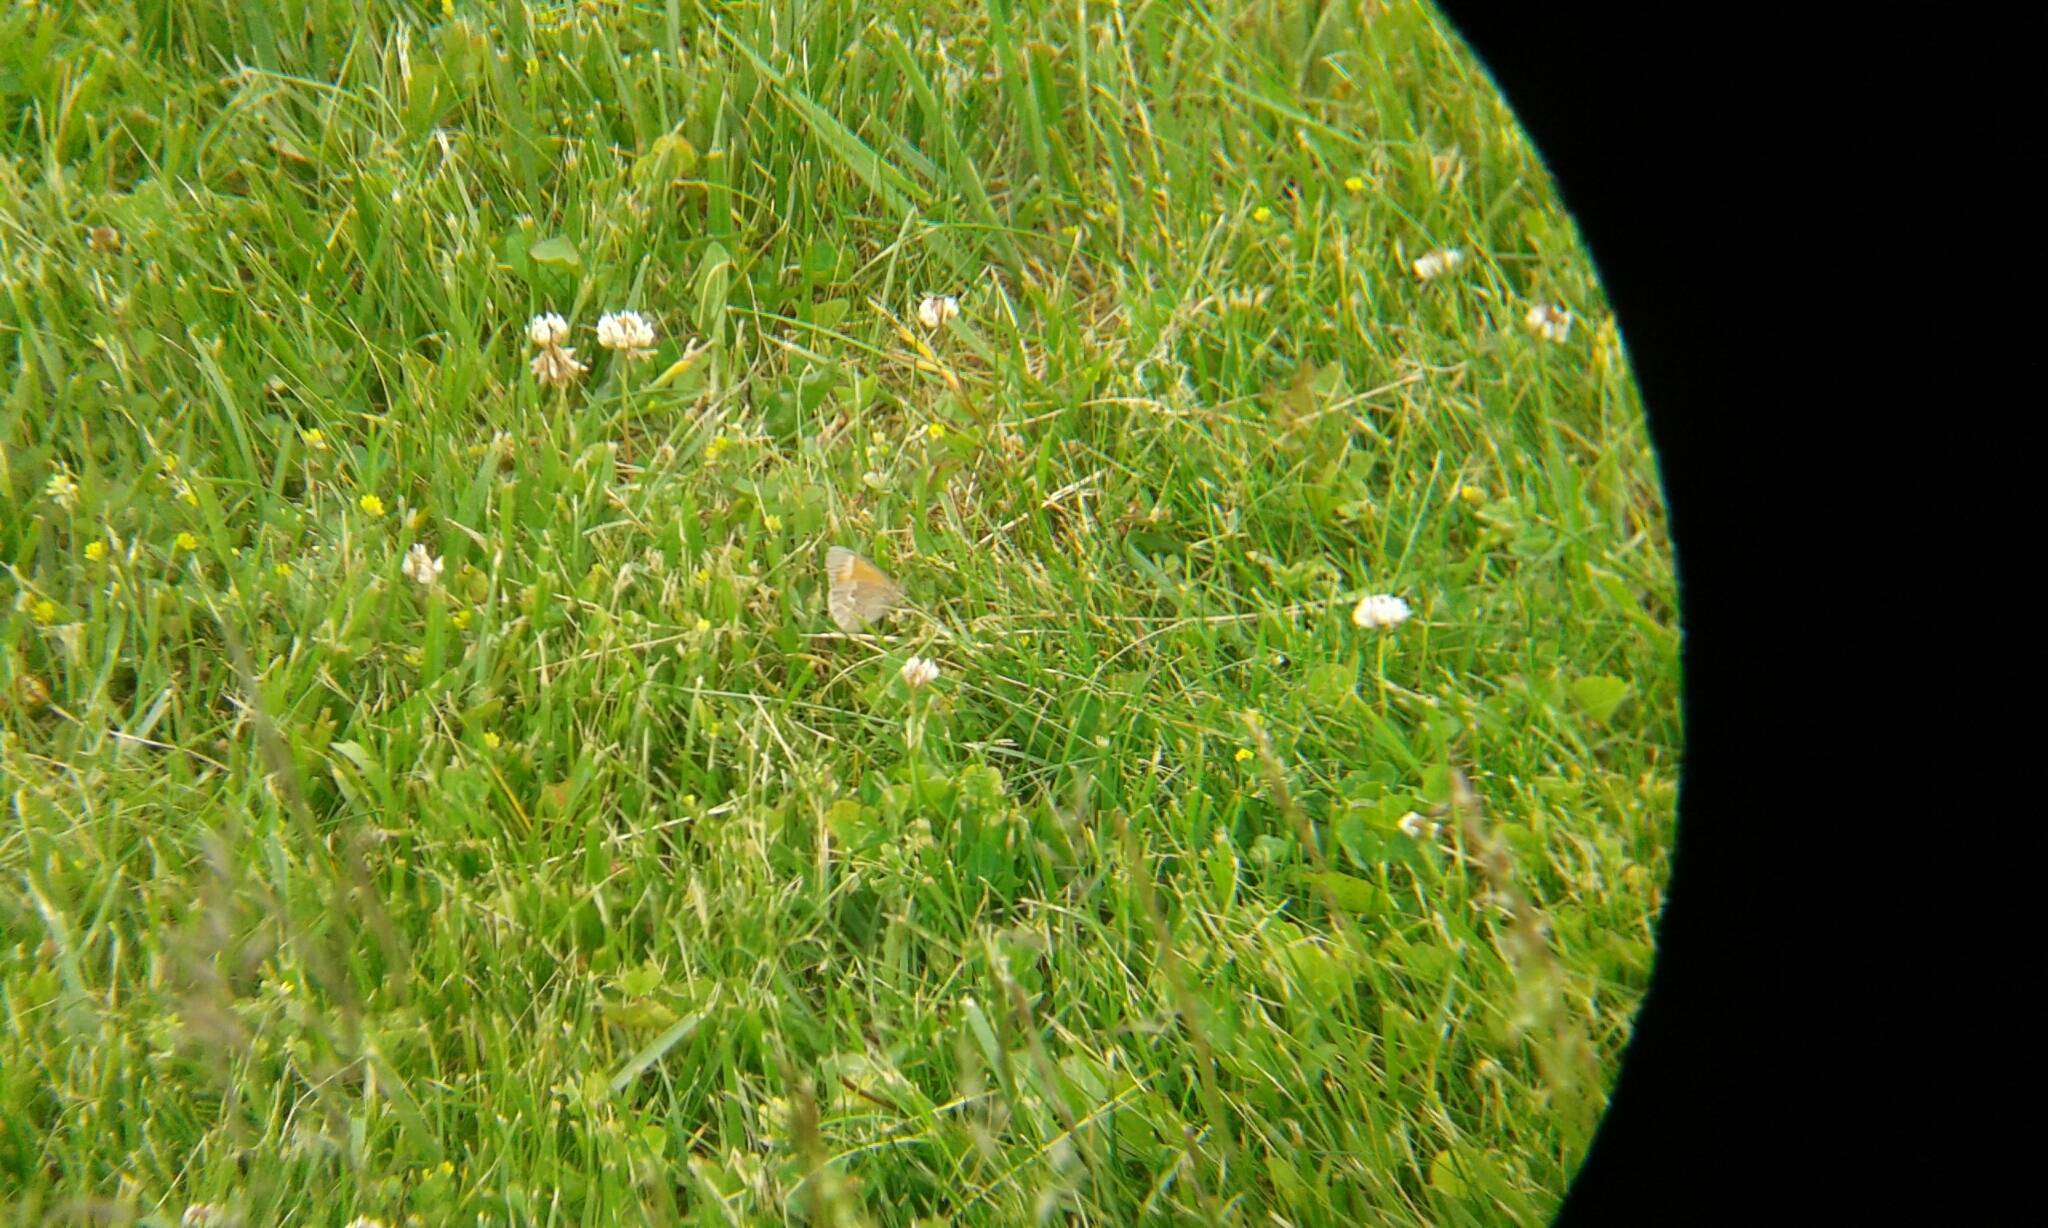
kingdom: Animalia
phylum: Arthropoda
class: Insecta
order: Lepidoptera
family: Nymphalidae
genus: Coenonympha
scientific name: Coenonympha california
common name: Common ringlet
